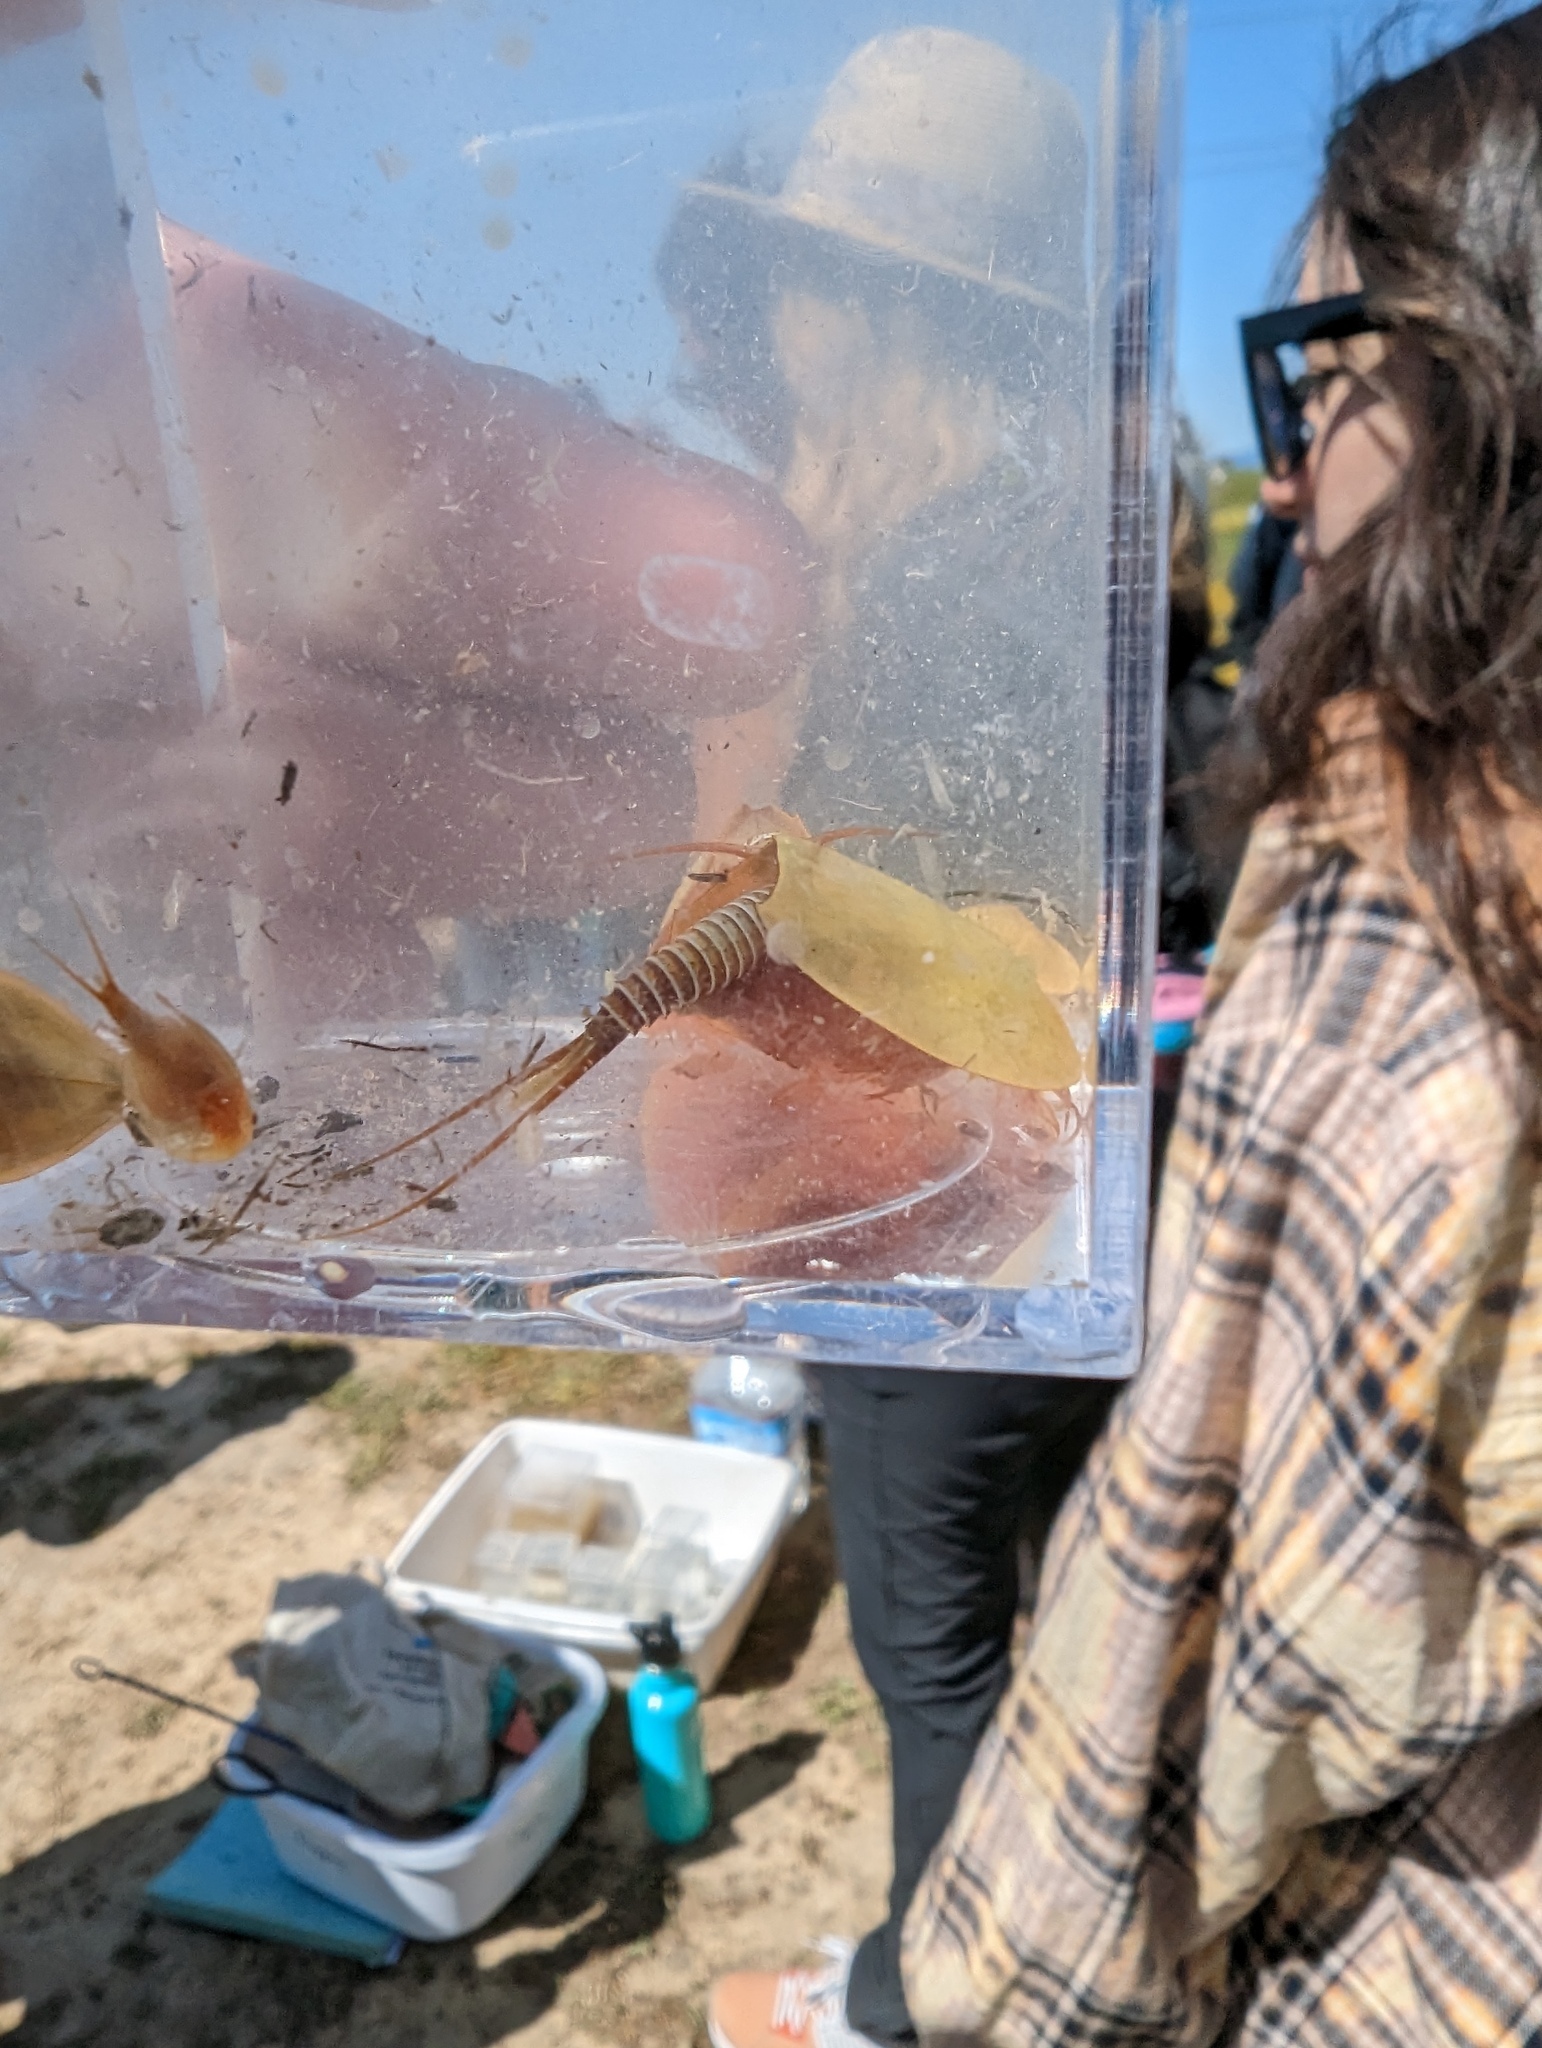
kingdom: Animalia
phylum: Arthropoda
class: Branchiopoda
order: Notostraca
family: Triopsidae
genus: Lepidurus
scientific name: Lepidurus packardi
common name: Vernal pool tadpole shrimp
